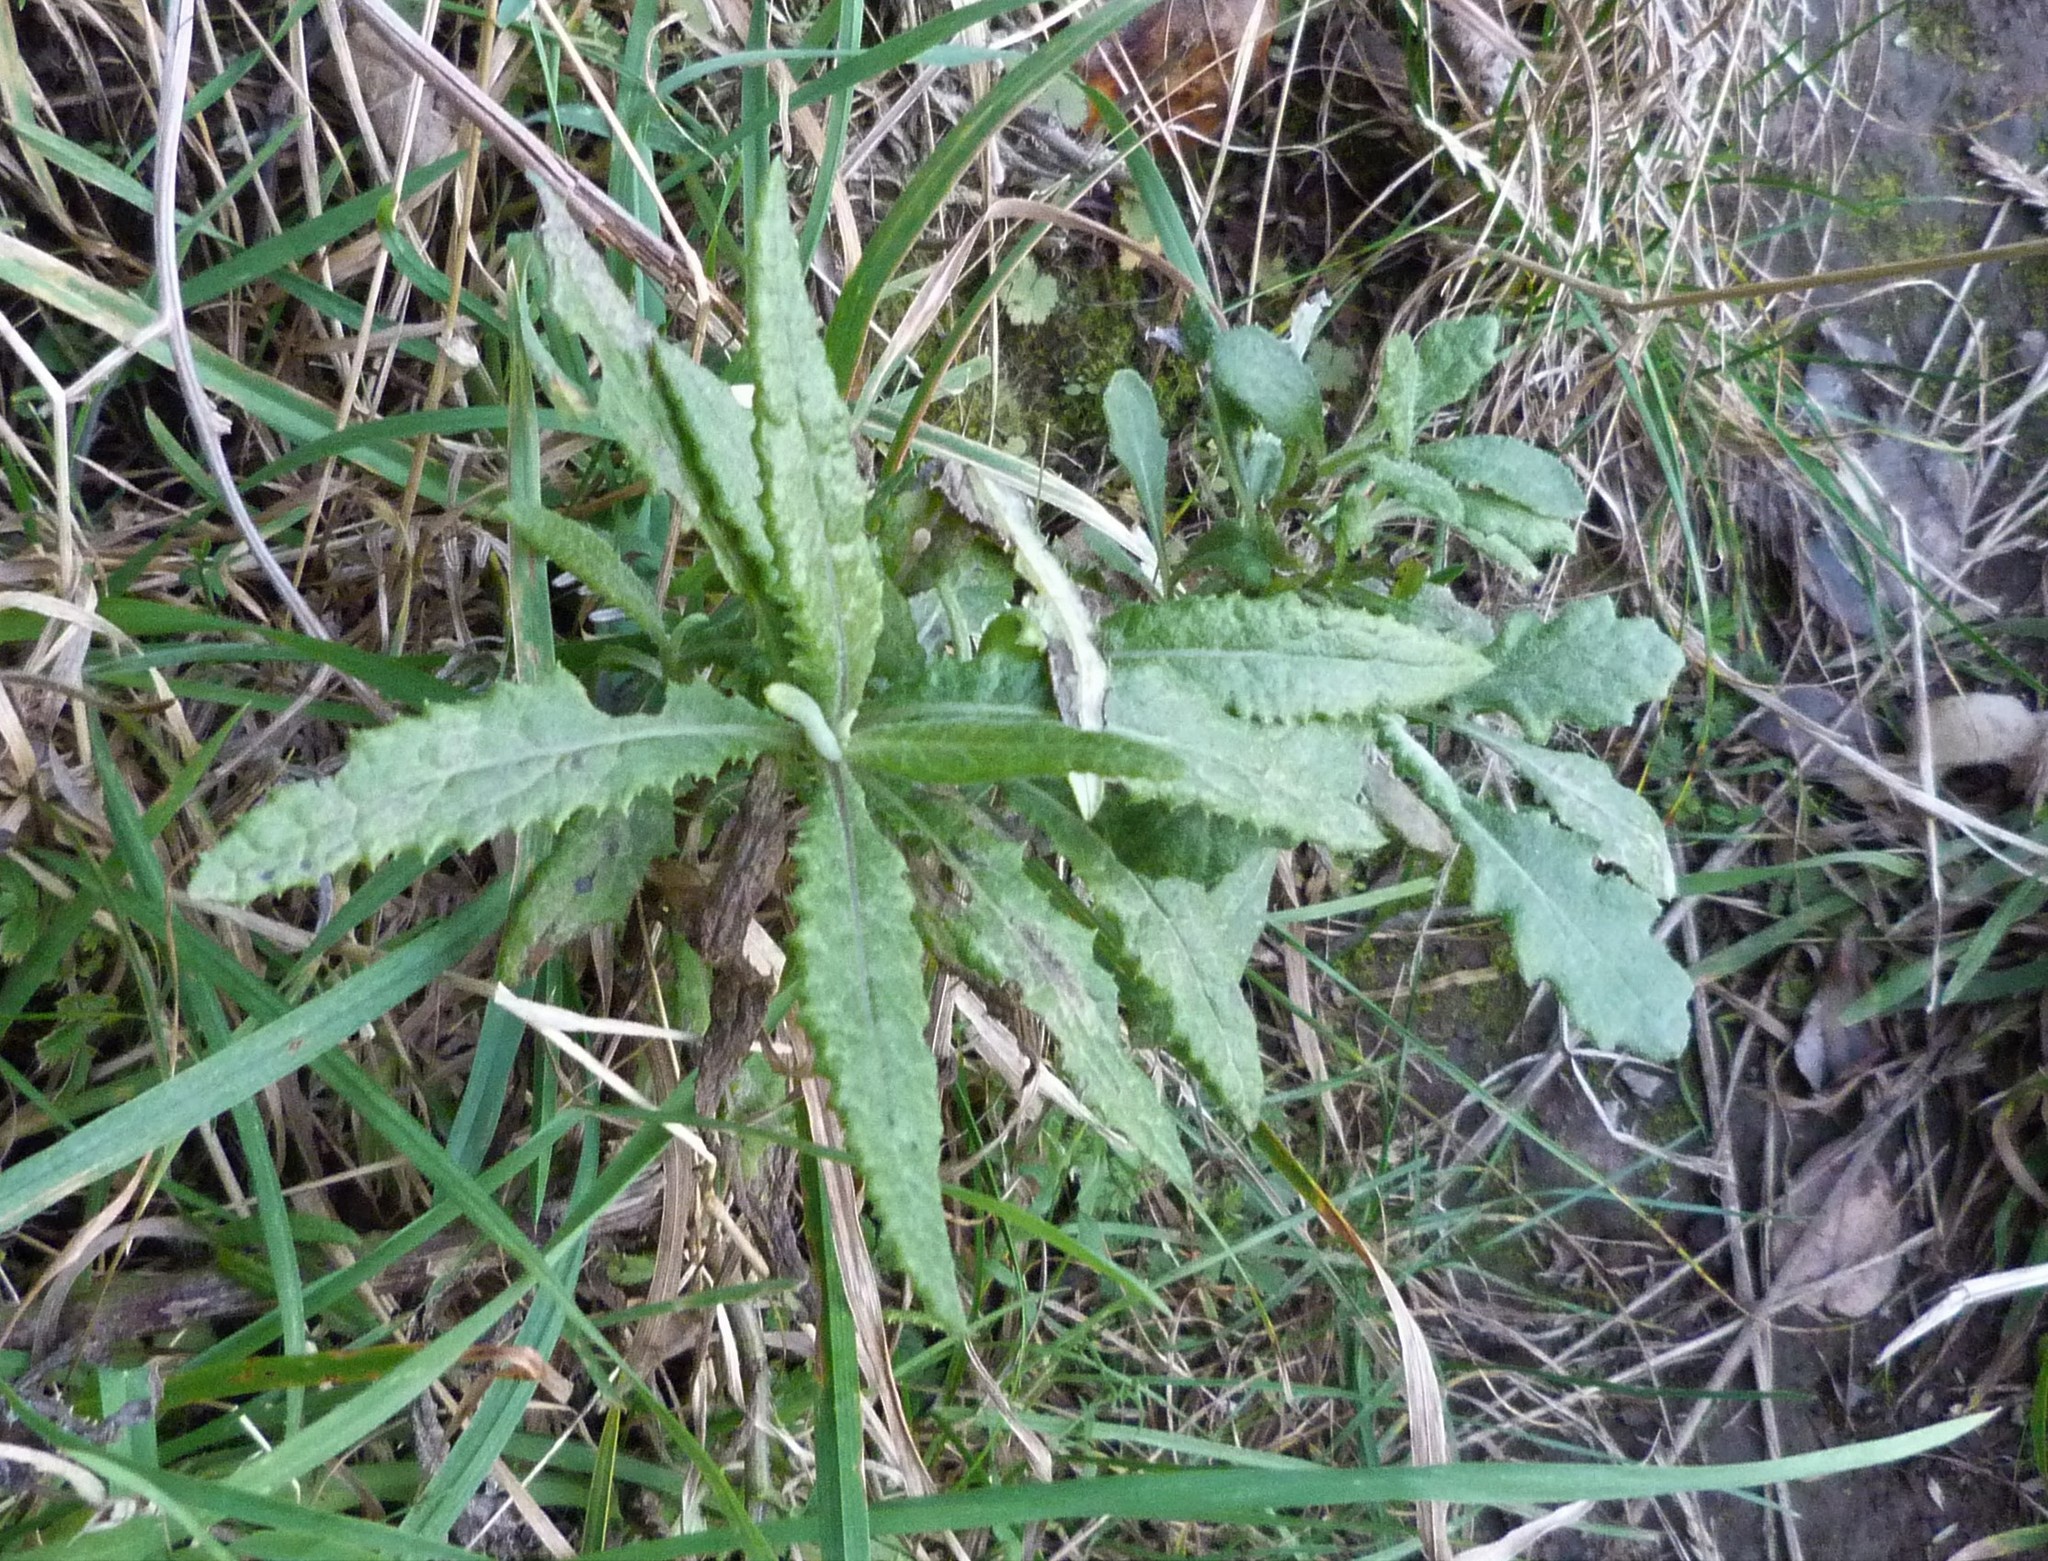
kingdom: Plantae
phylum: Tracheophyta
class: Magnoliopsida
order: Asterales
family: Asteraceae
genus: Senecio
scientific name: Senecio minimus
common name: Toothed fireweed
